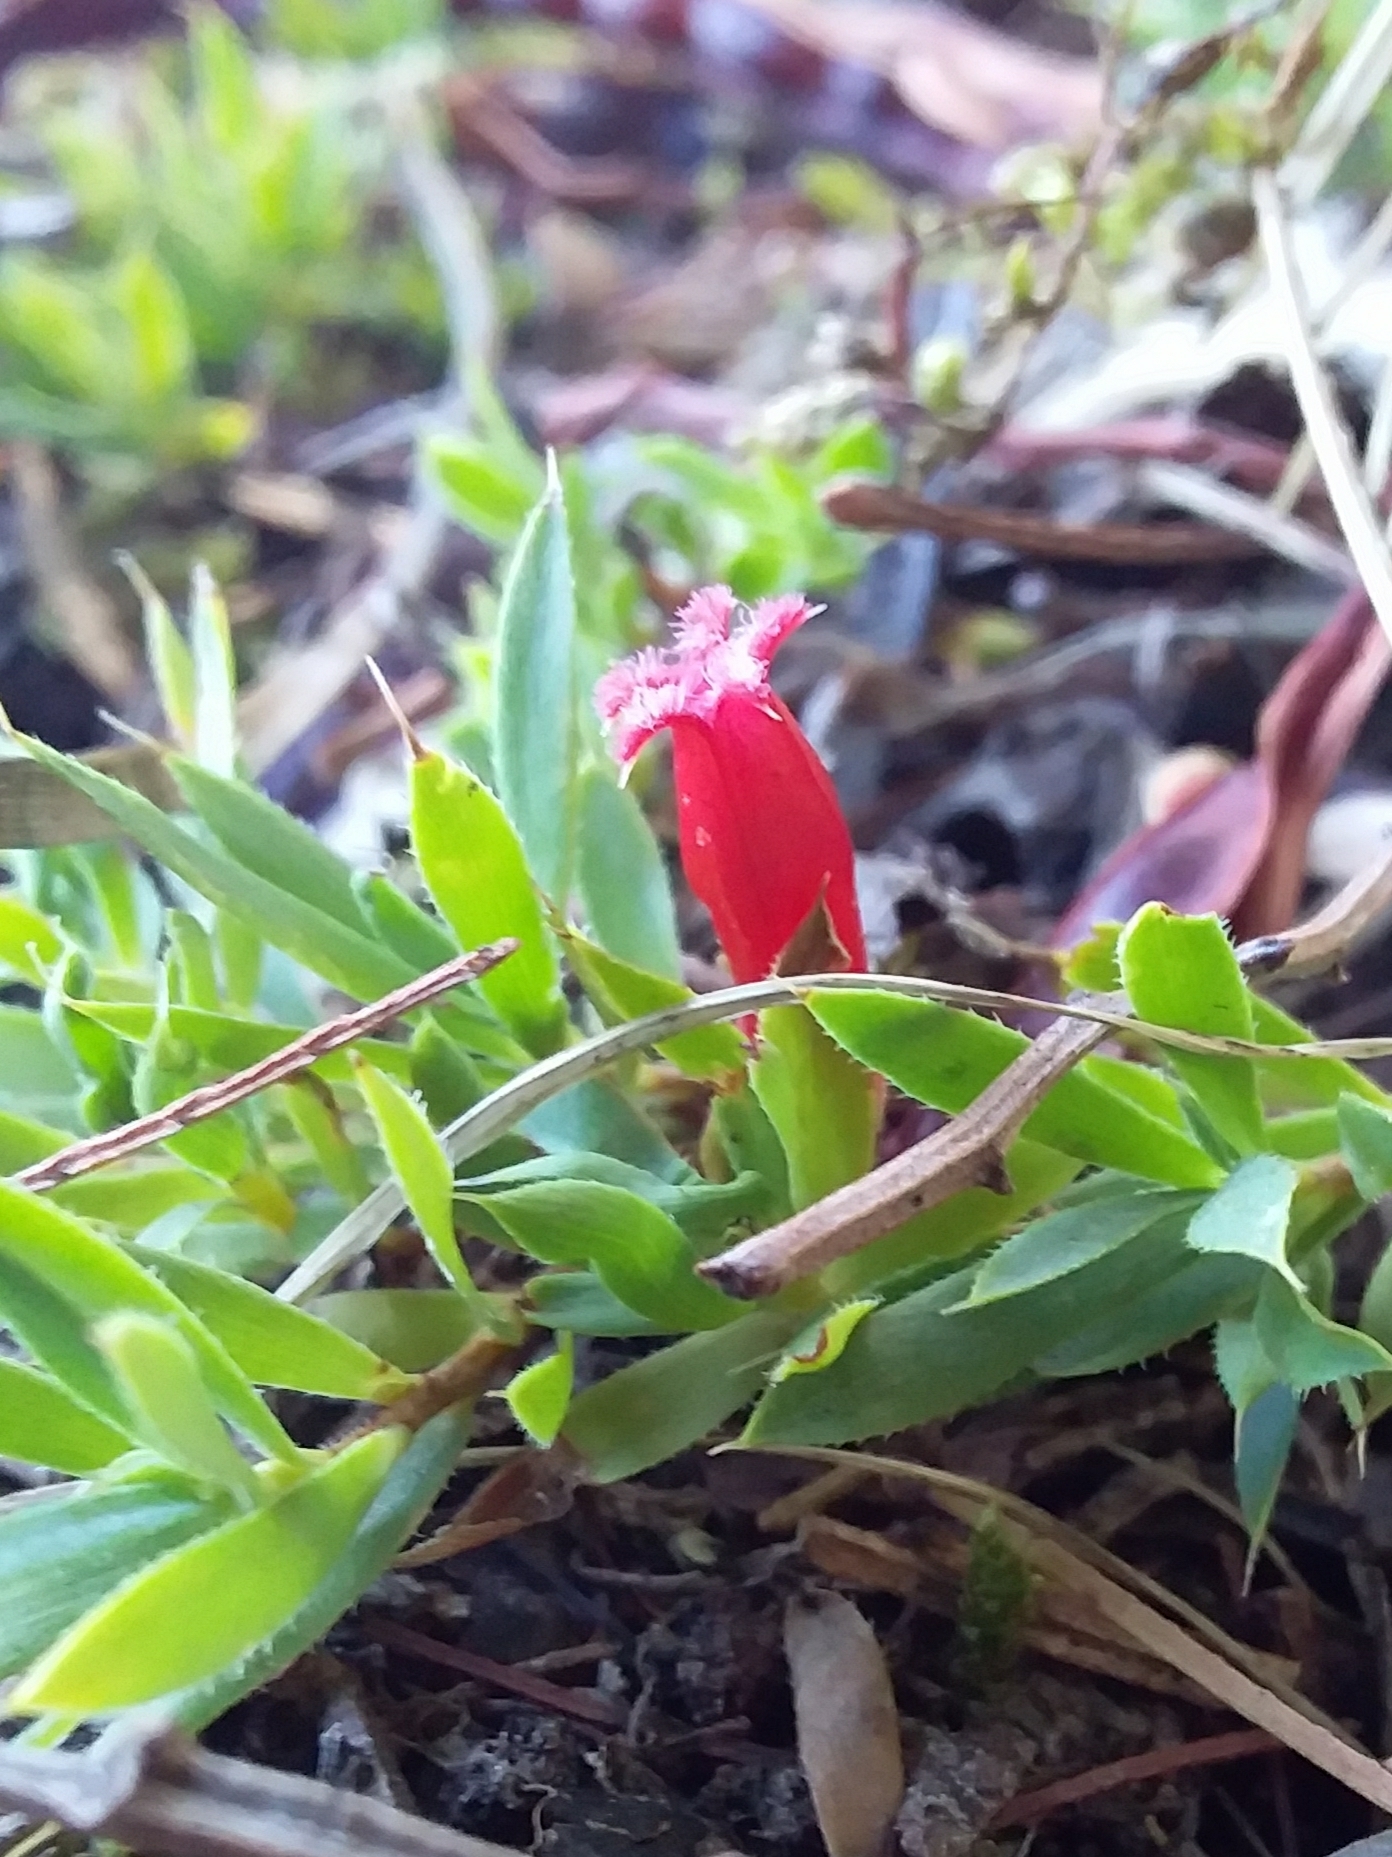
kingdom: Plantae
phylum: Tracheophyta
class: Magnoliopsida
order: Ericales
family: Ericaceae
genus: Styphelia
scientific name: Styphelia humifusa
